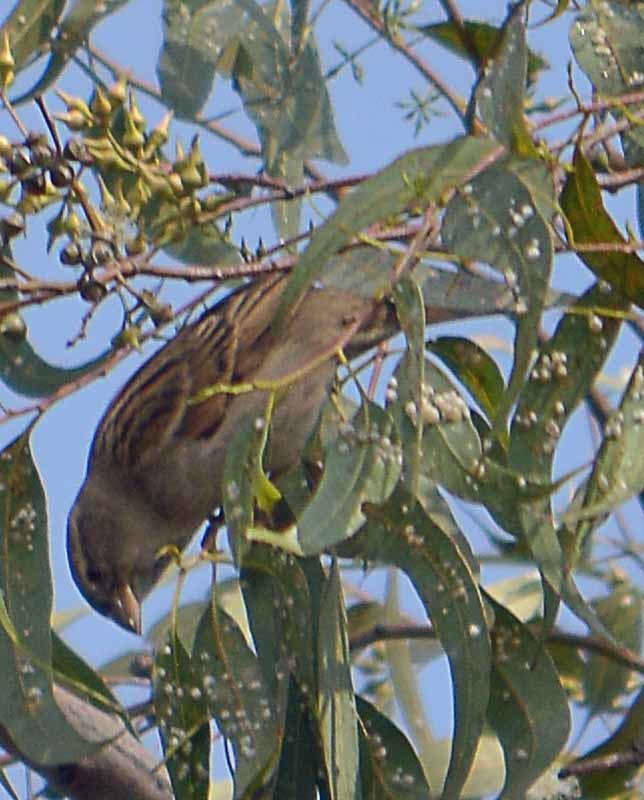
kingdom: Animalia
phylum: Chordata
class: Aves
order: Passeriformes
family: Passeridae
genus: Passer
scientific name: Passer domesticus
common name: House sparrow
